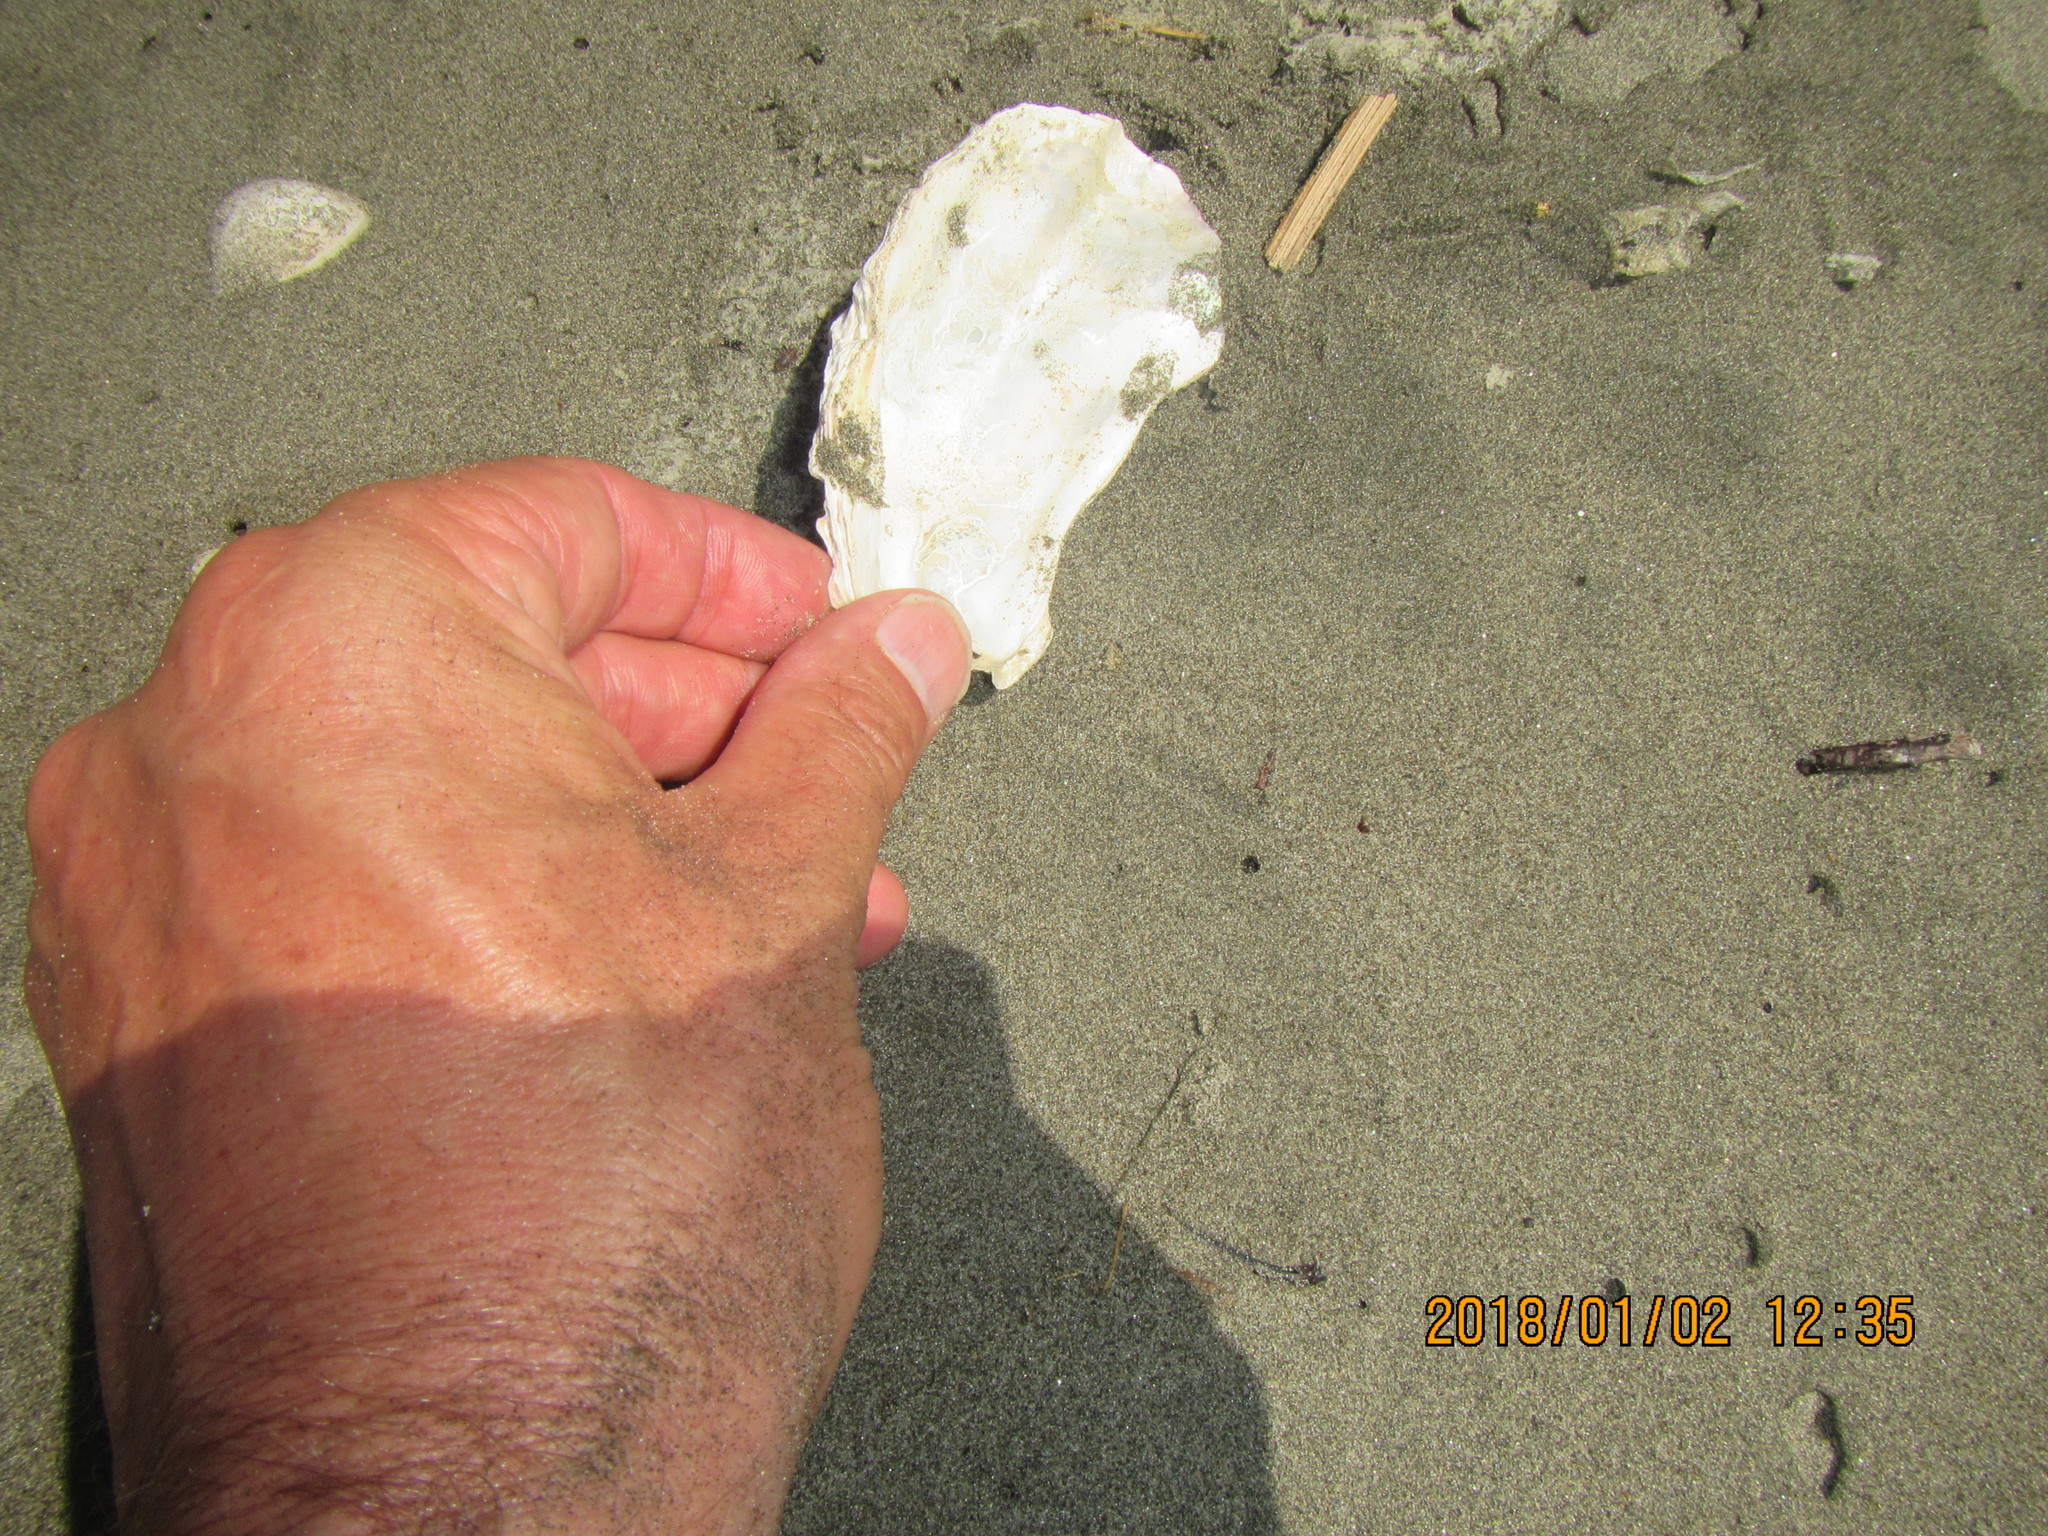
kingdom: Animalia
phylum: Mollusca
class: Bivalvia
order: Ostreida
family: Ostreidae
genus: Magallana
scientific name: Magallana gigas
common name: Pacific oyster
